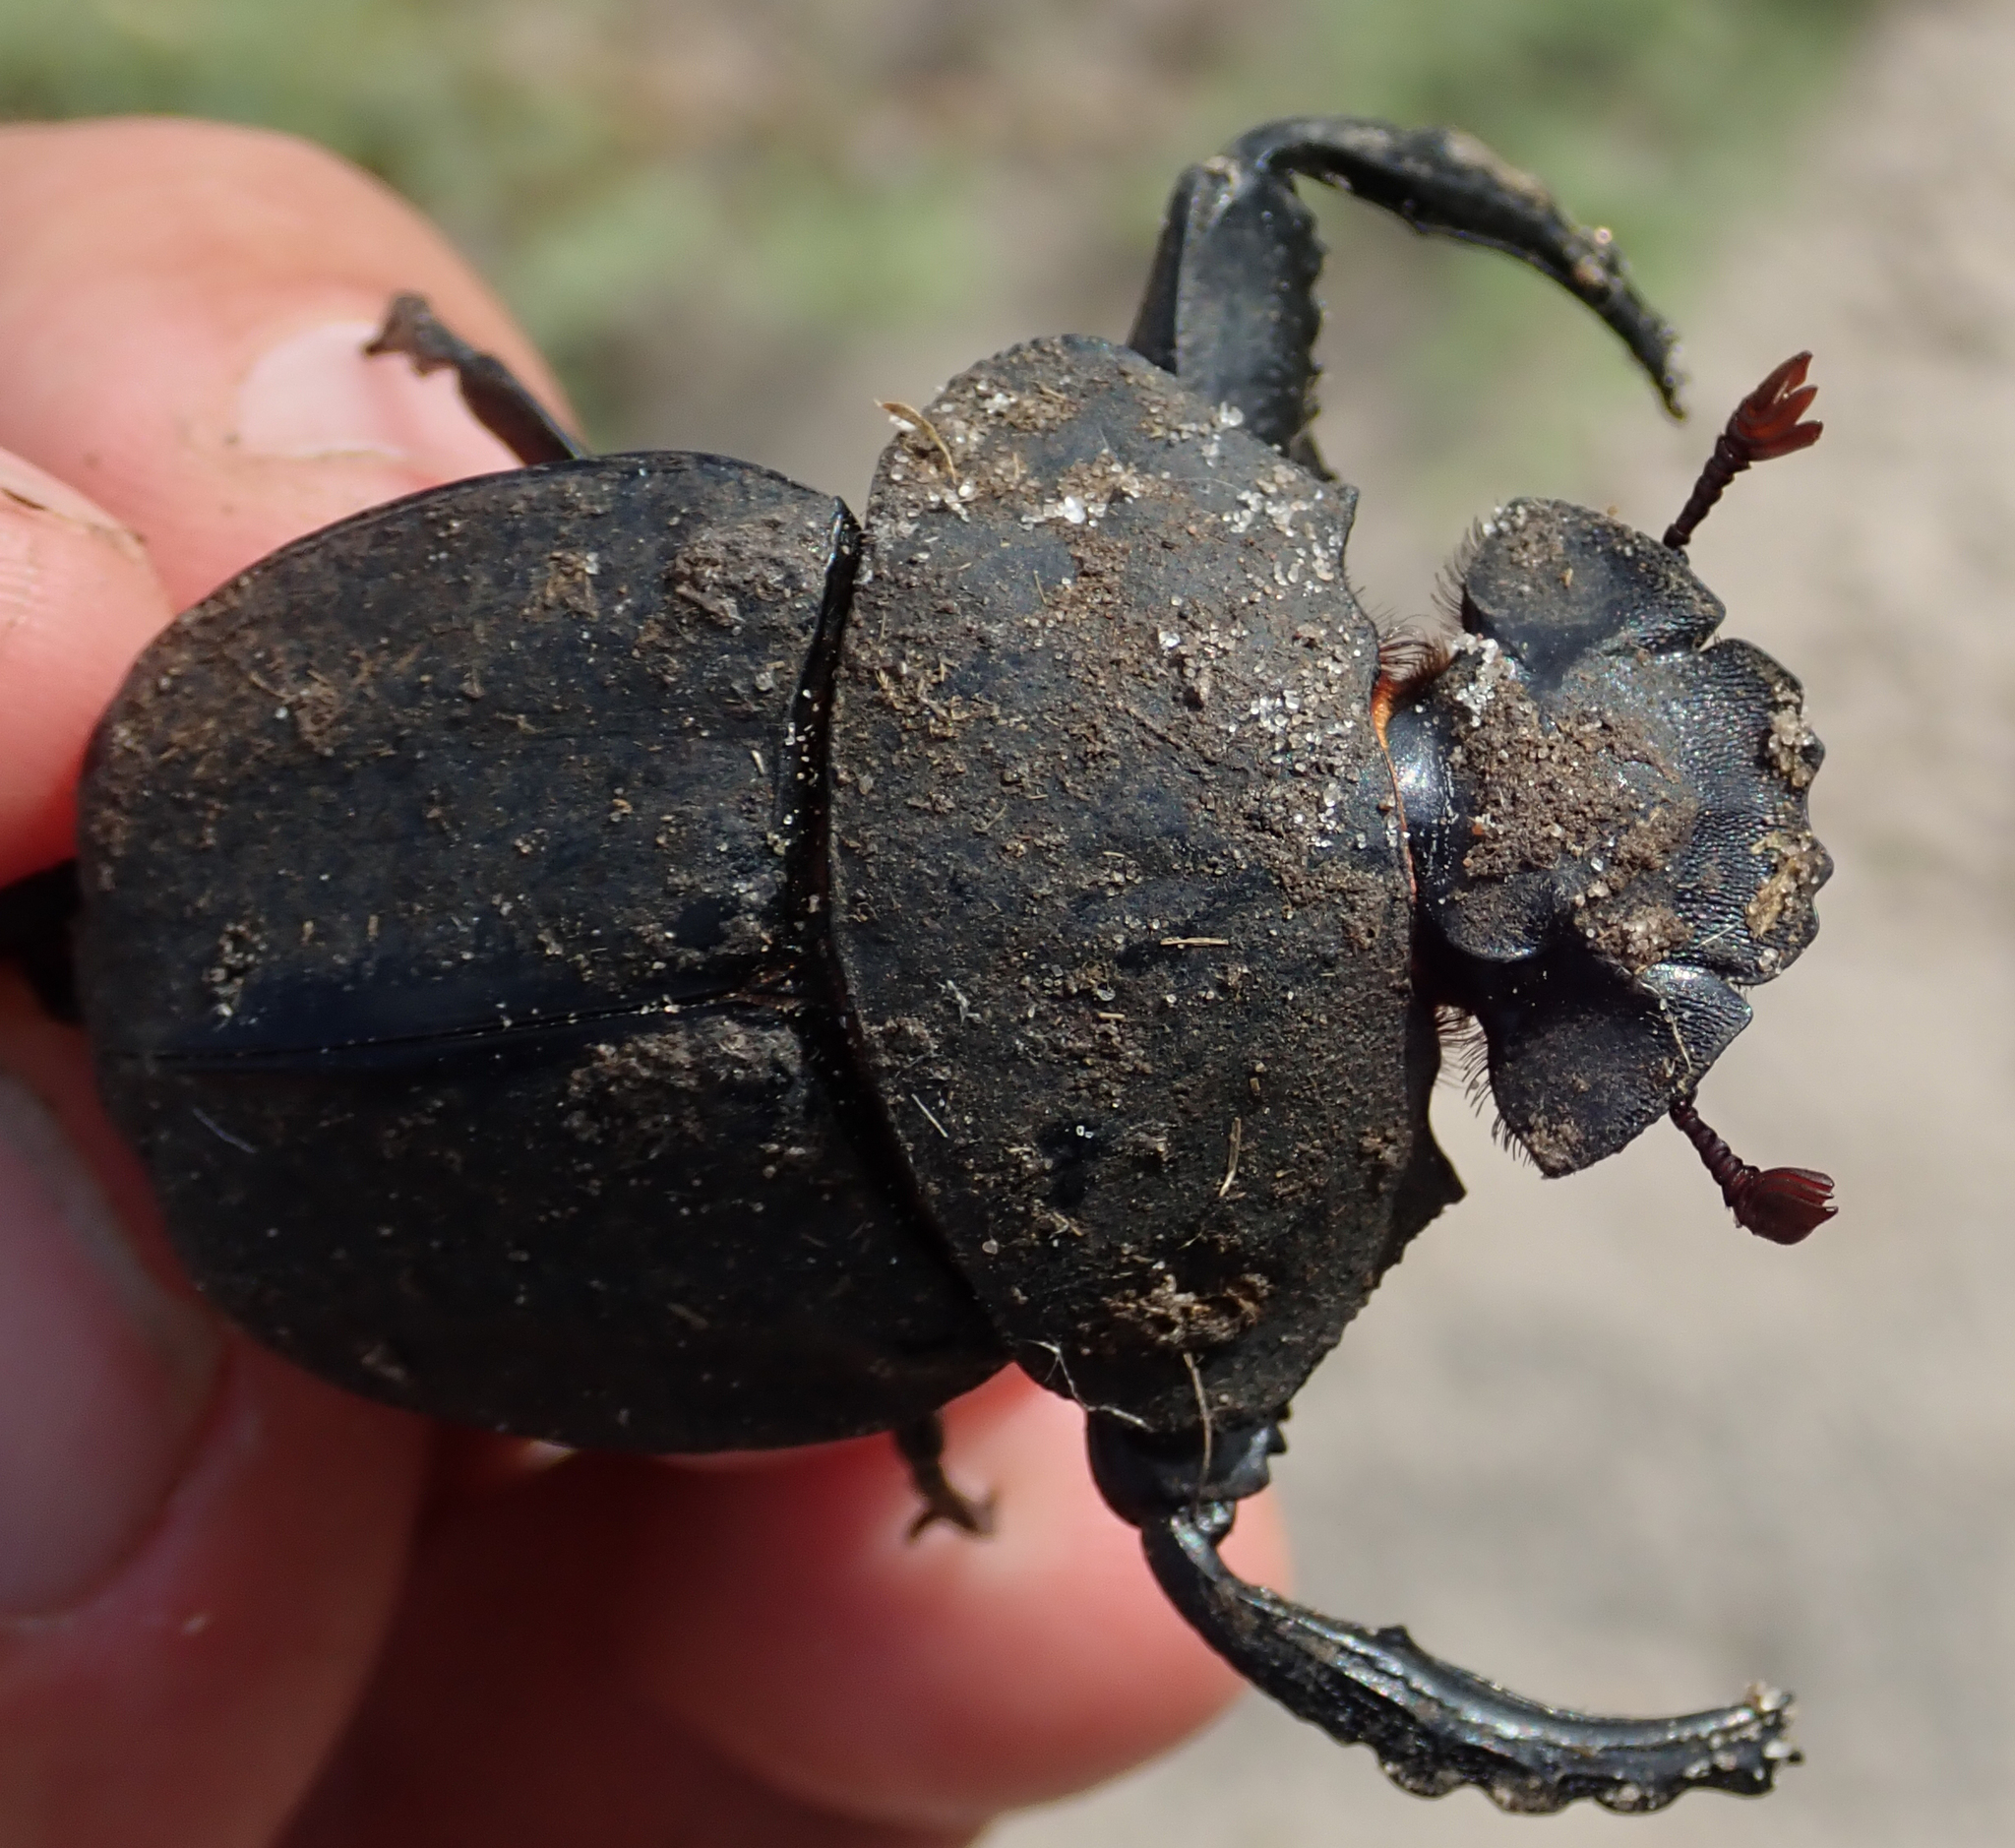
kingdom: Animalia
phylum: Arthropoda
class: Insecta
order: Coleoptera
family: Scarabaeidae
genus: Pachylomera
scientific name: Pachylomera femoralis
